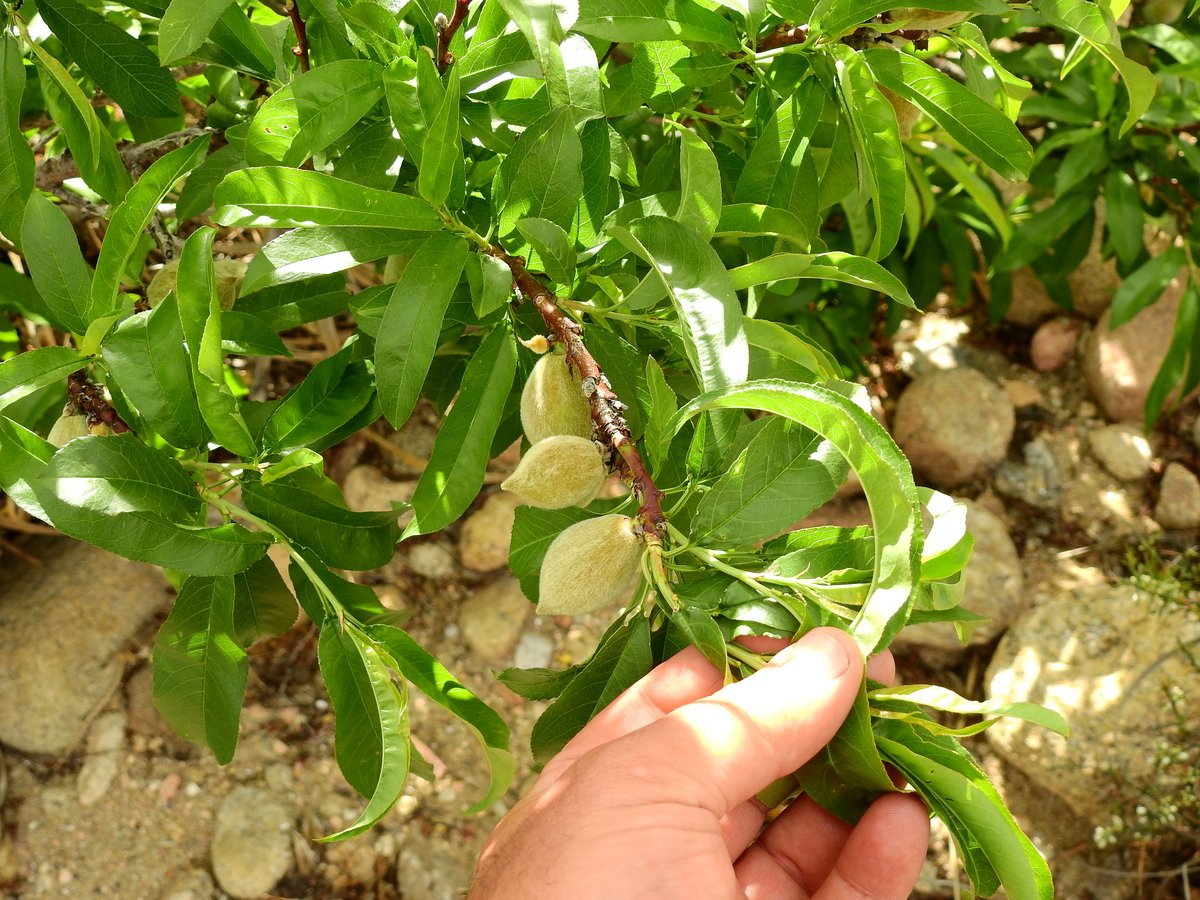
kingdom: Plantae
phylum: Tracheophyta
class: Magnoliopsida
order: Rosales
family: Rosaceae
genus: Prunus
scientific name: Prunus persica
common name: Peach
